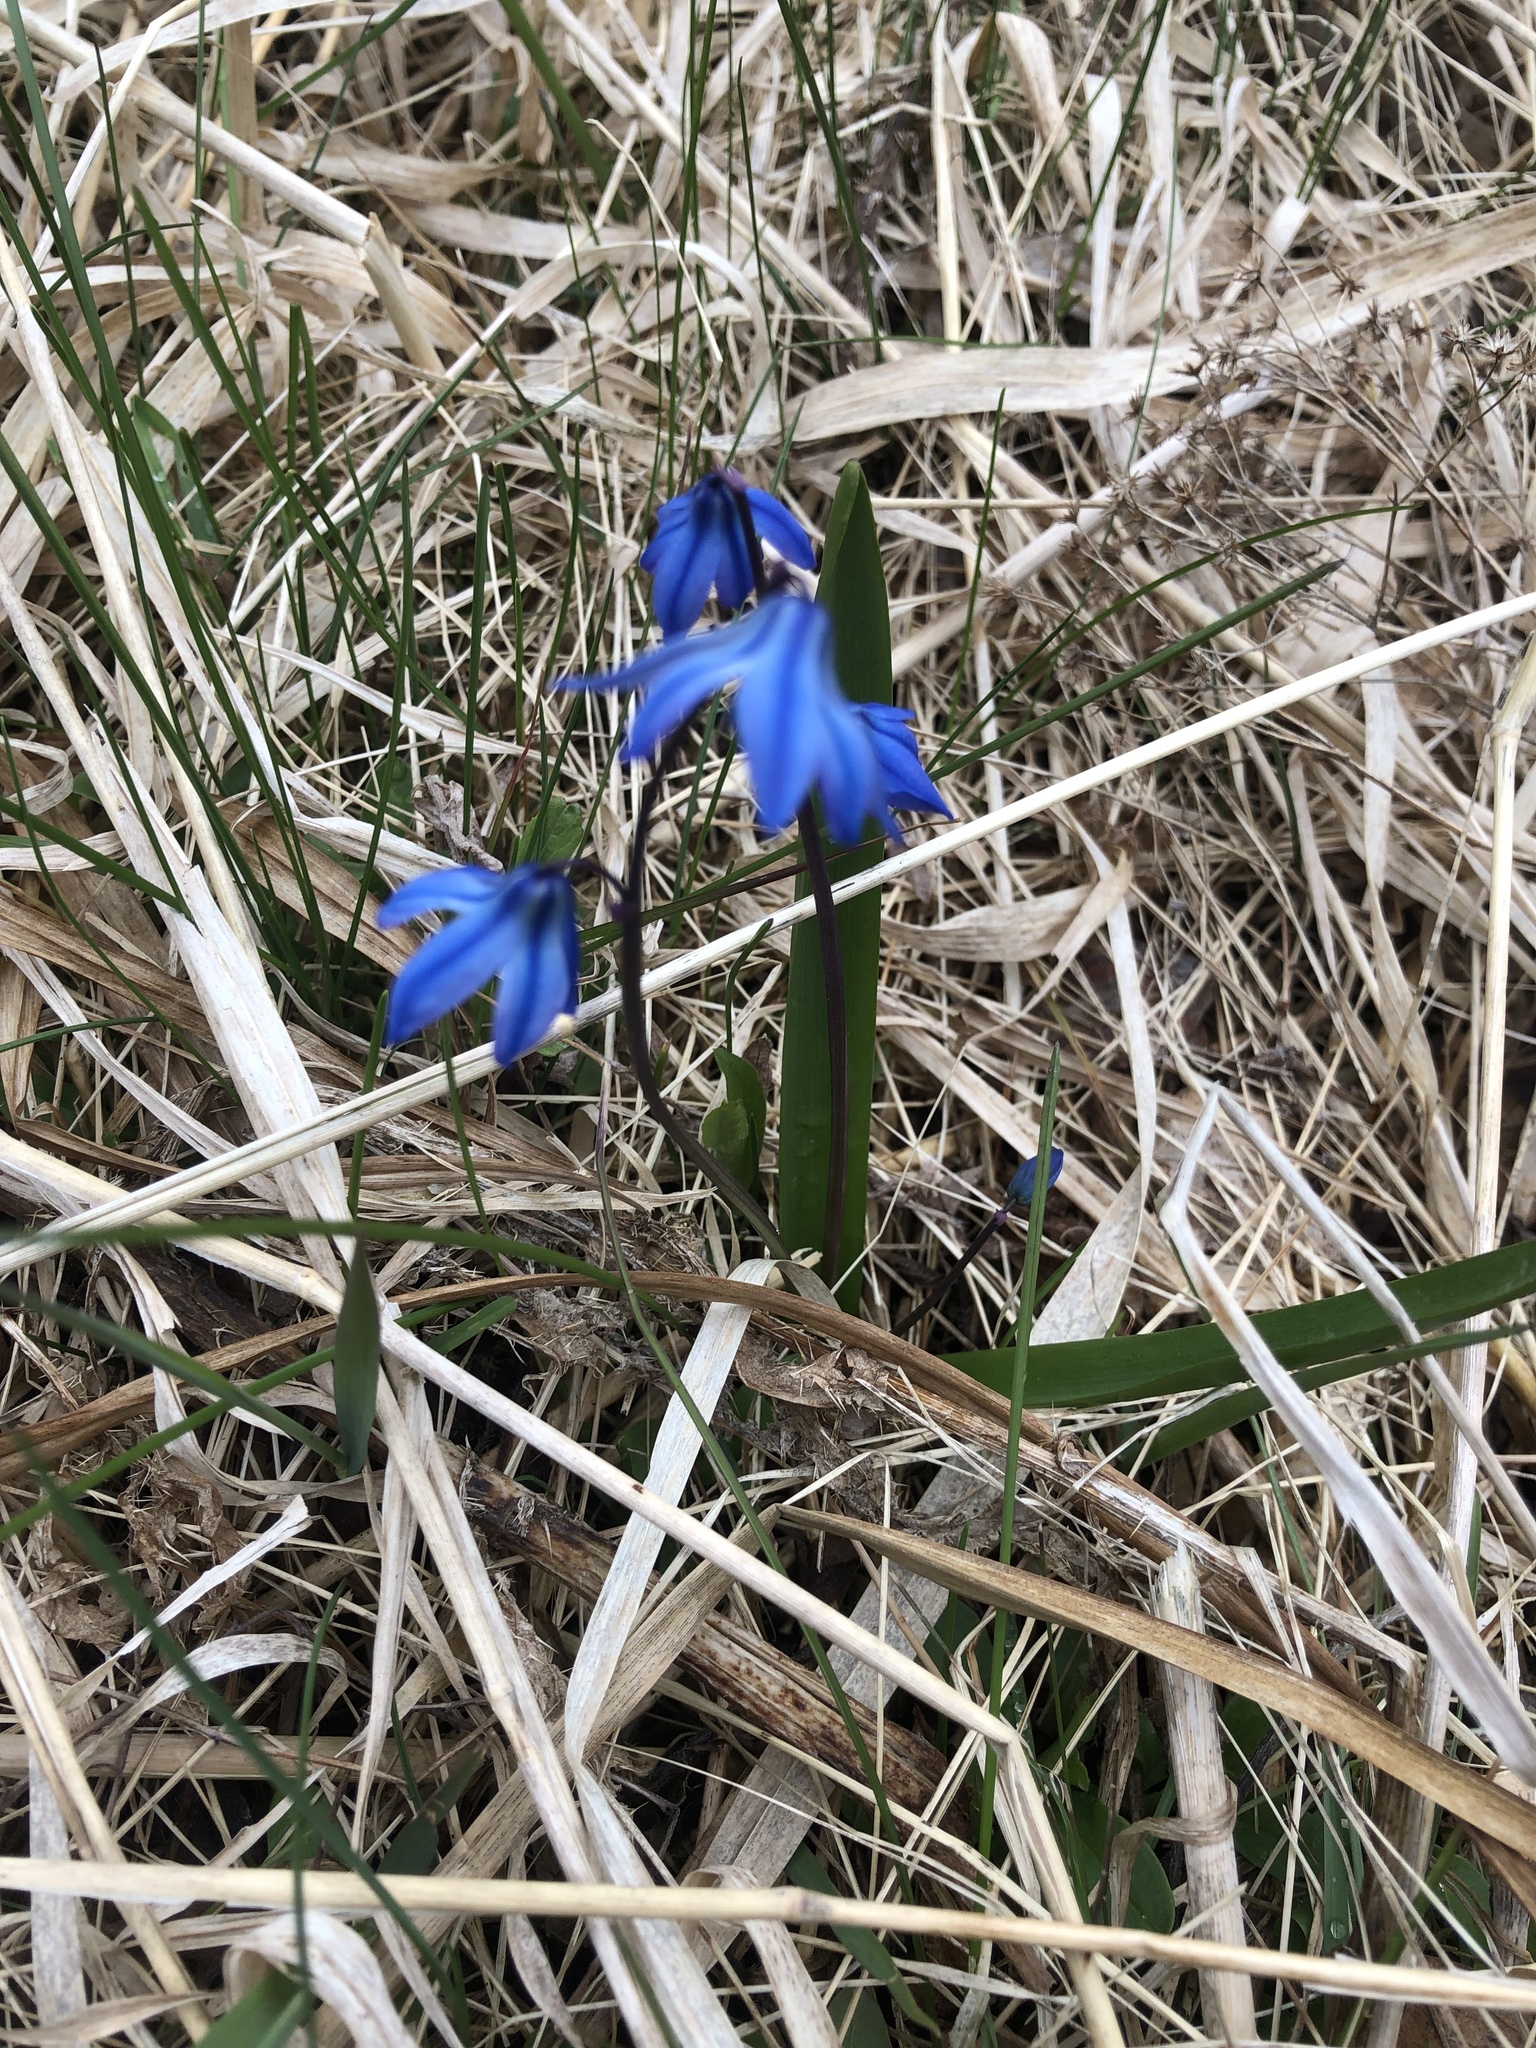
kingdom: Plantae
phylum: Tracheophyta
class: Liliopsida
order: Asparagales
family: Asparagaceae
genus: Scilla
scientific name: Scilla siberica
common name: Siberian squill
